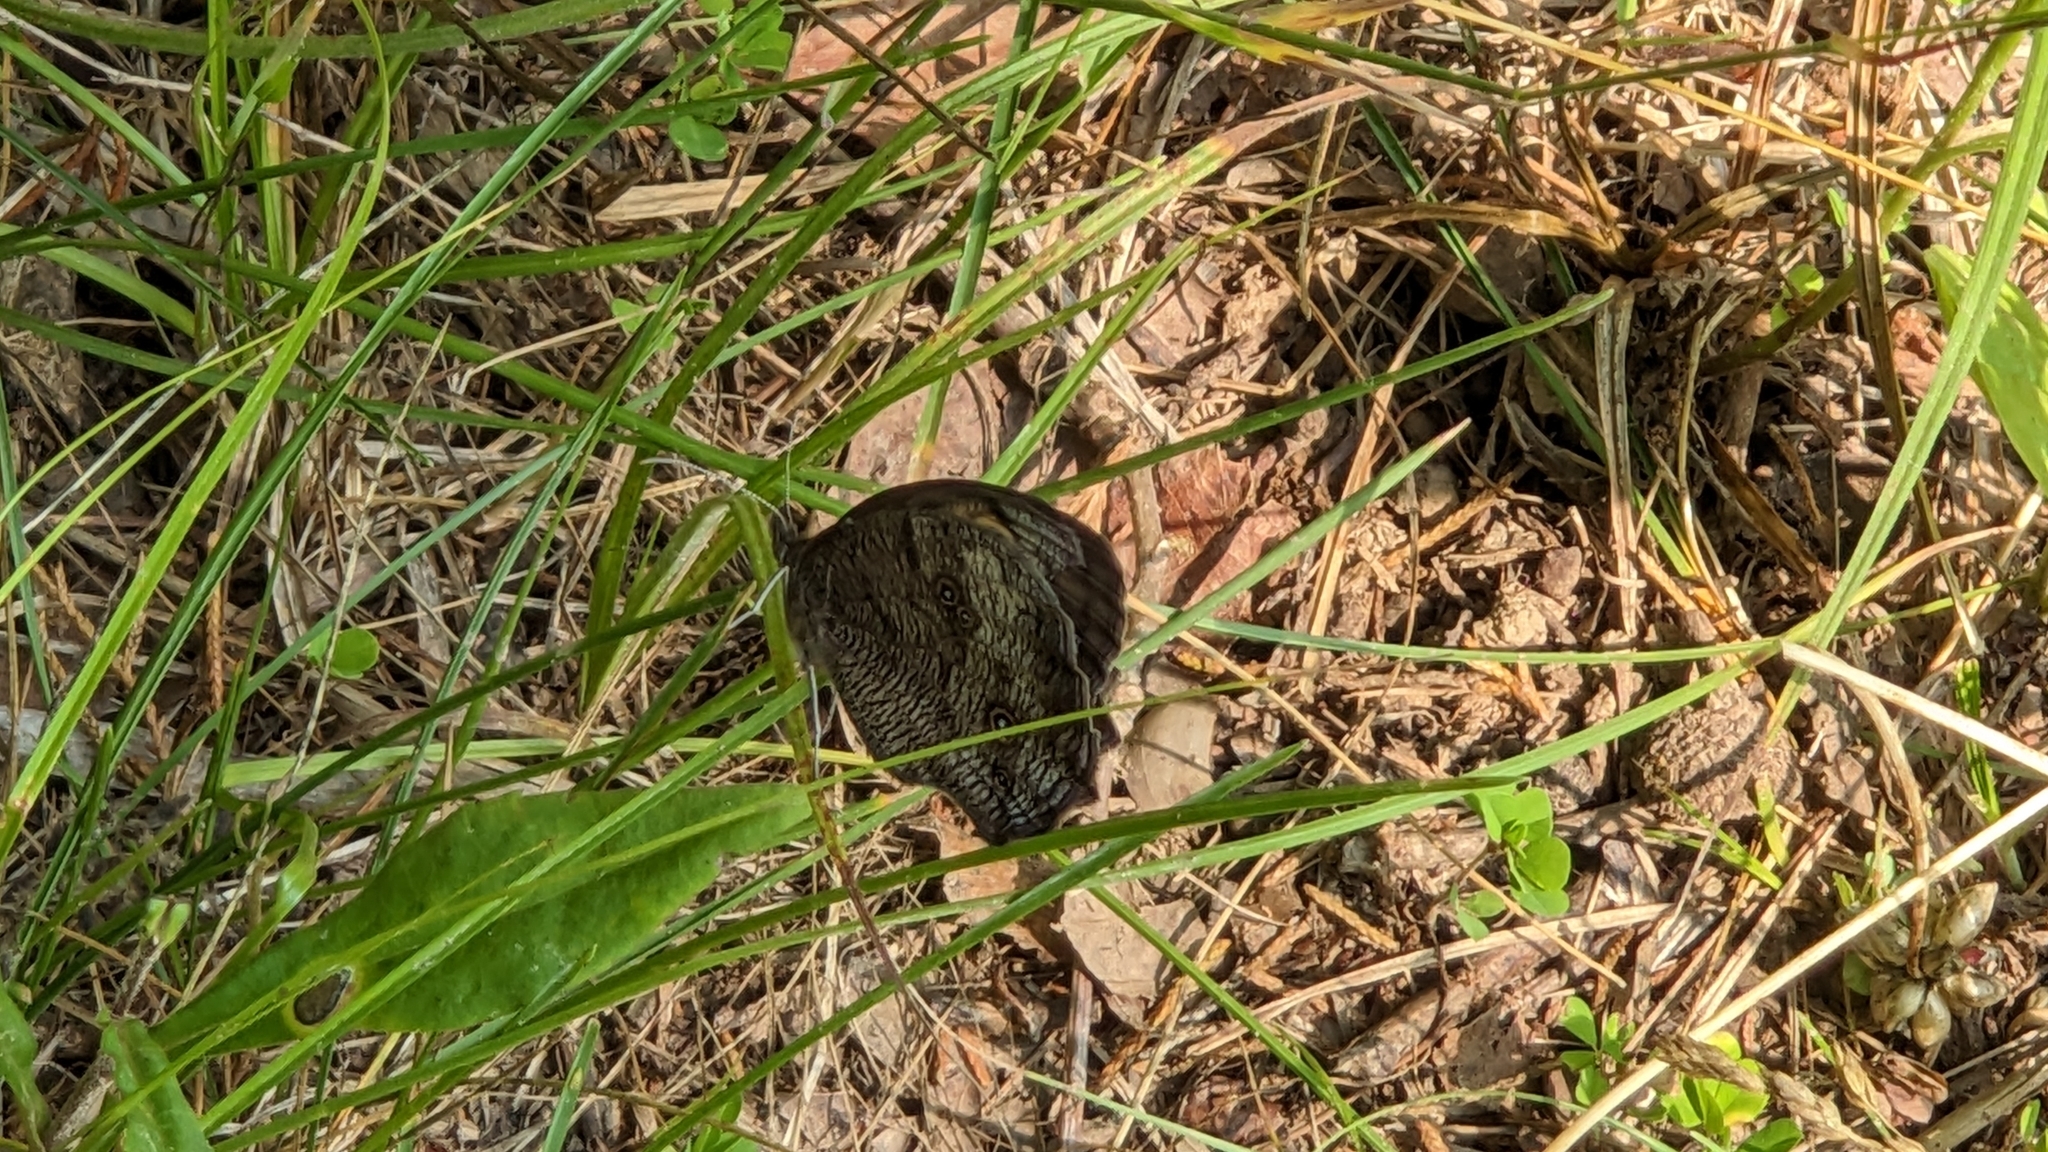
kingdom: Animalia
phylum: Arthropoda
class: Insecta
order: Lepidoptera
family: Nymphalidae
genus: Cercyonis
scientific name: Cercyonis pegala
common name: Common wood-nymph
